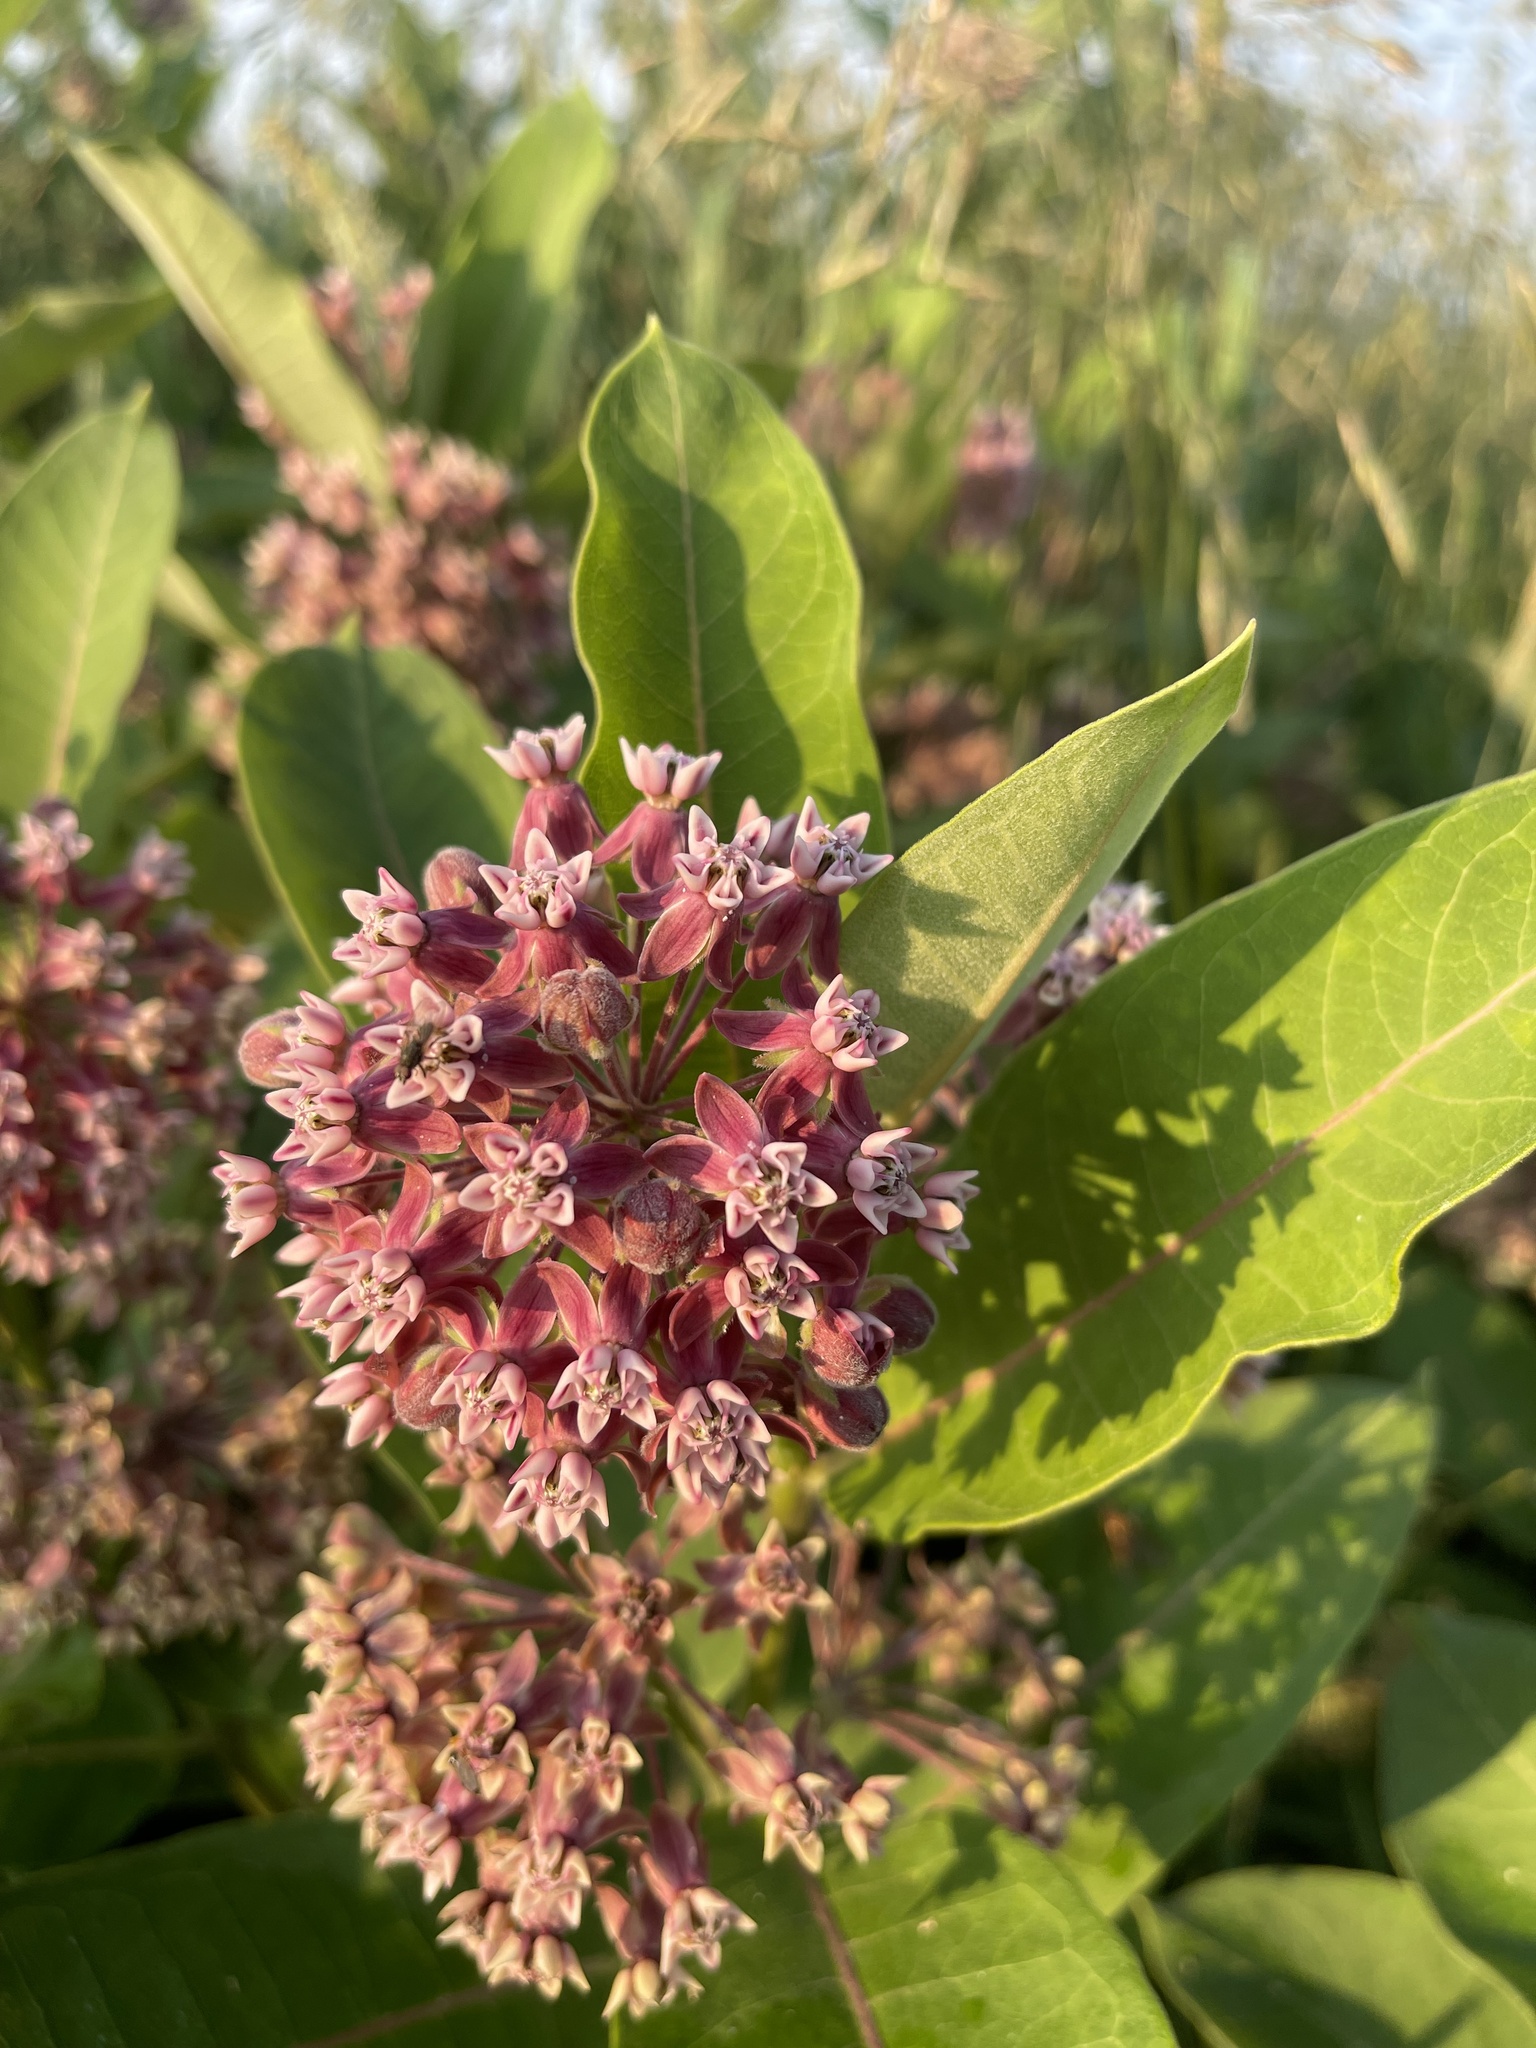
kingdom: Plantae
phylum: Tracheophyta
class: Magnoliopsida
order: Gentianales
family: Apocynaceae
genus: Asclepias
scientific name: Asclepias syriaca
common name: Common milkweed
